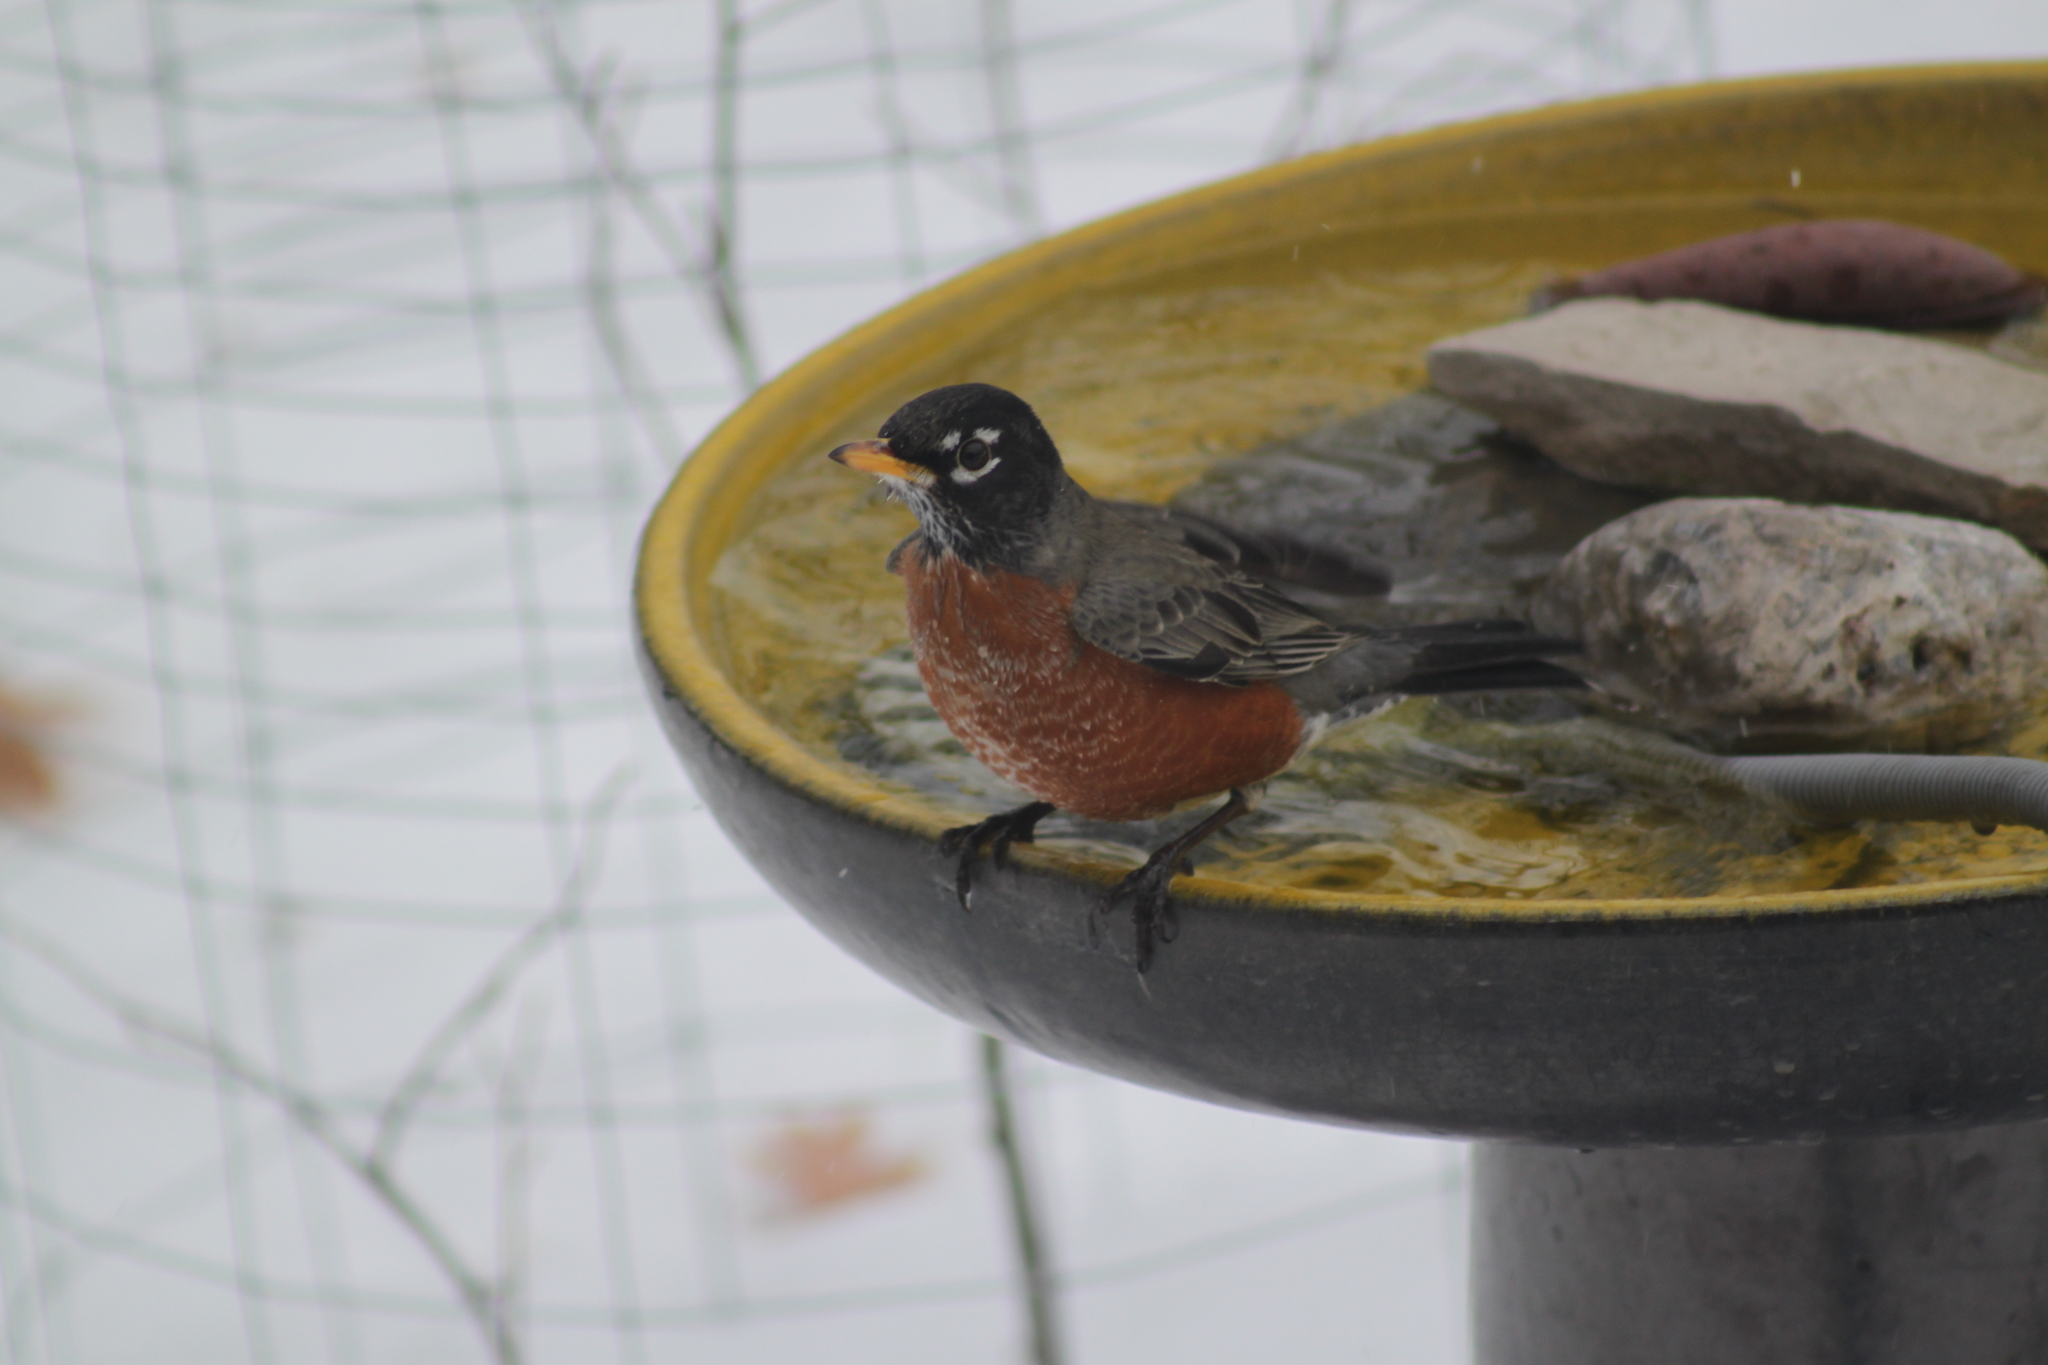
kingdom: Animalia
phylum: Chordata
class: Aves
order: Passeriformes
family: Turdidae
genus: Turdus
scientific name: Turdus migratorius
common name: American robin
